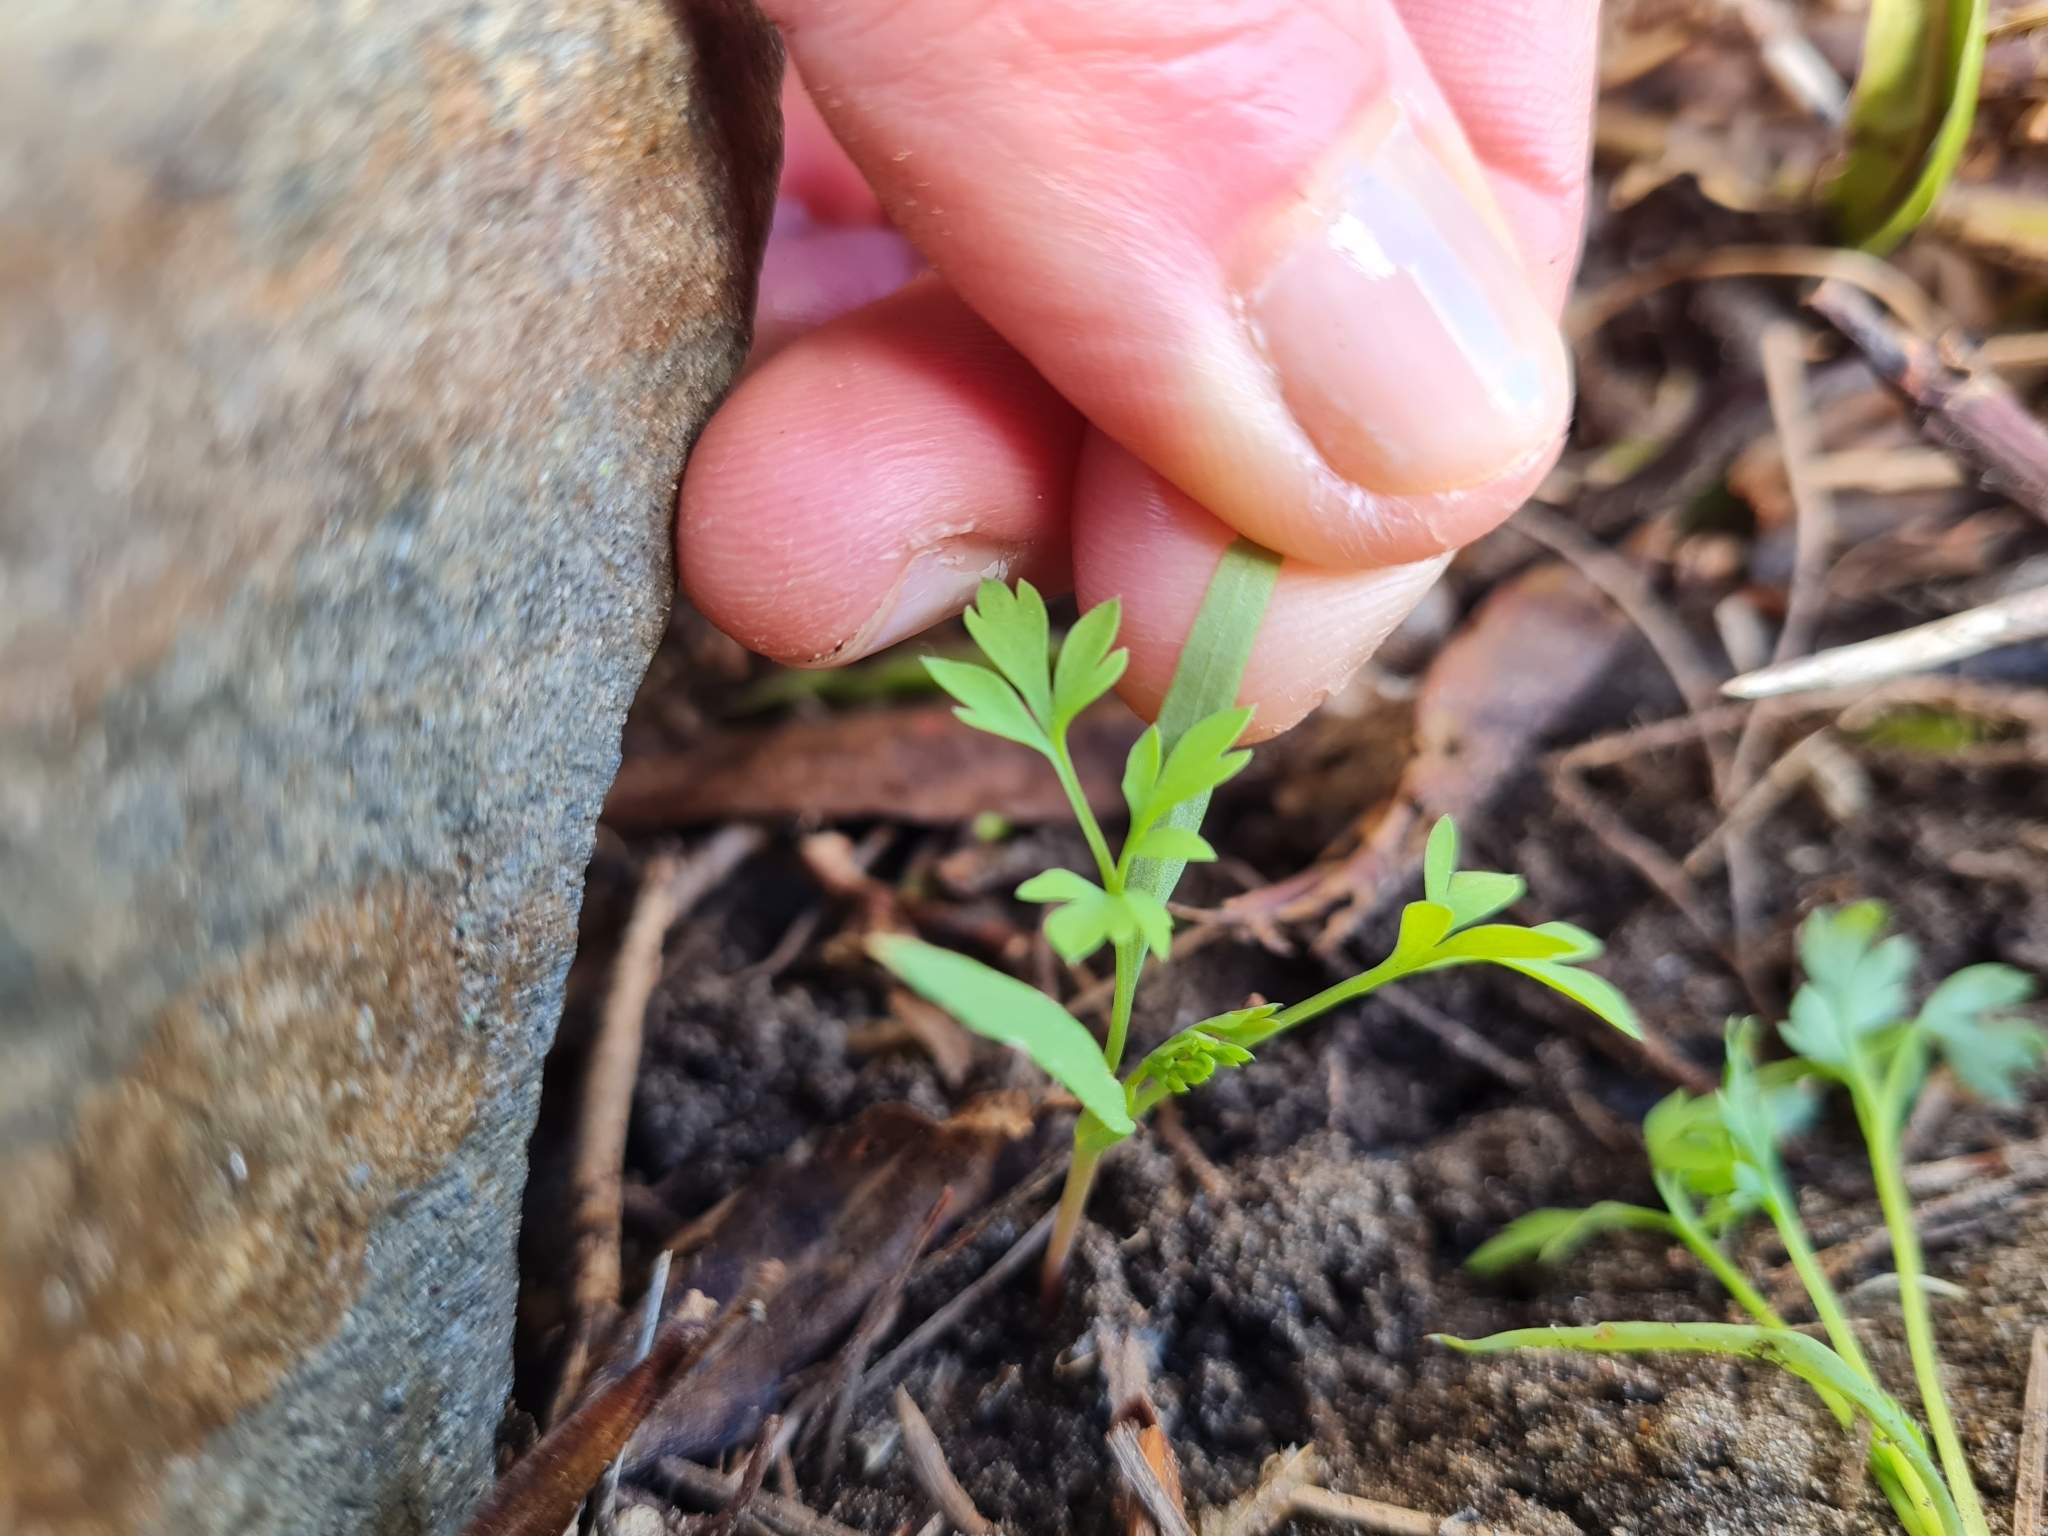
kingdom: Plantae
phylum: Tracheophyta
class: Magnoliopsida
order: Ranunculales
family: Papaveraceae
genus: Fumaria
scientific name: Fumaria muralis
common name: Common ramping-fumitory
